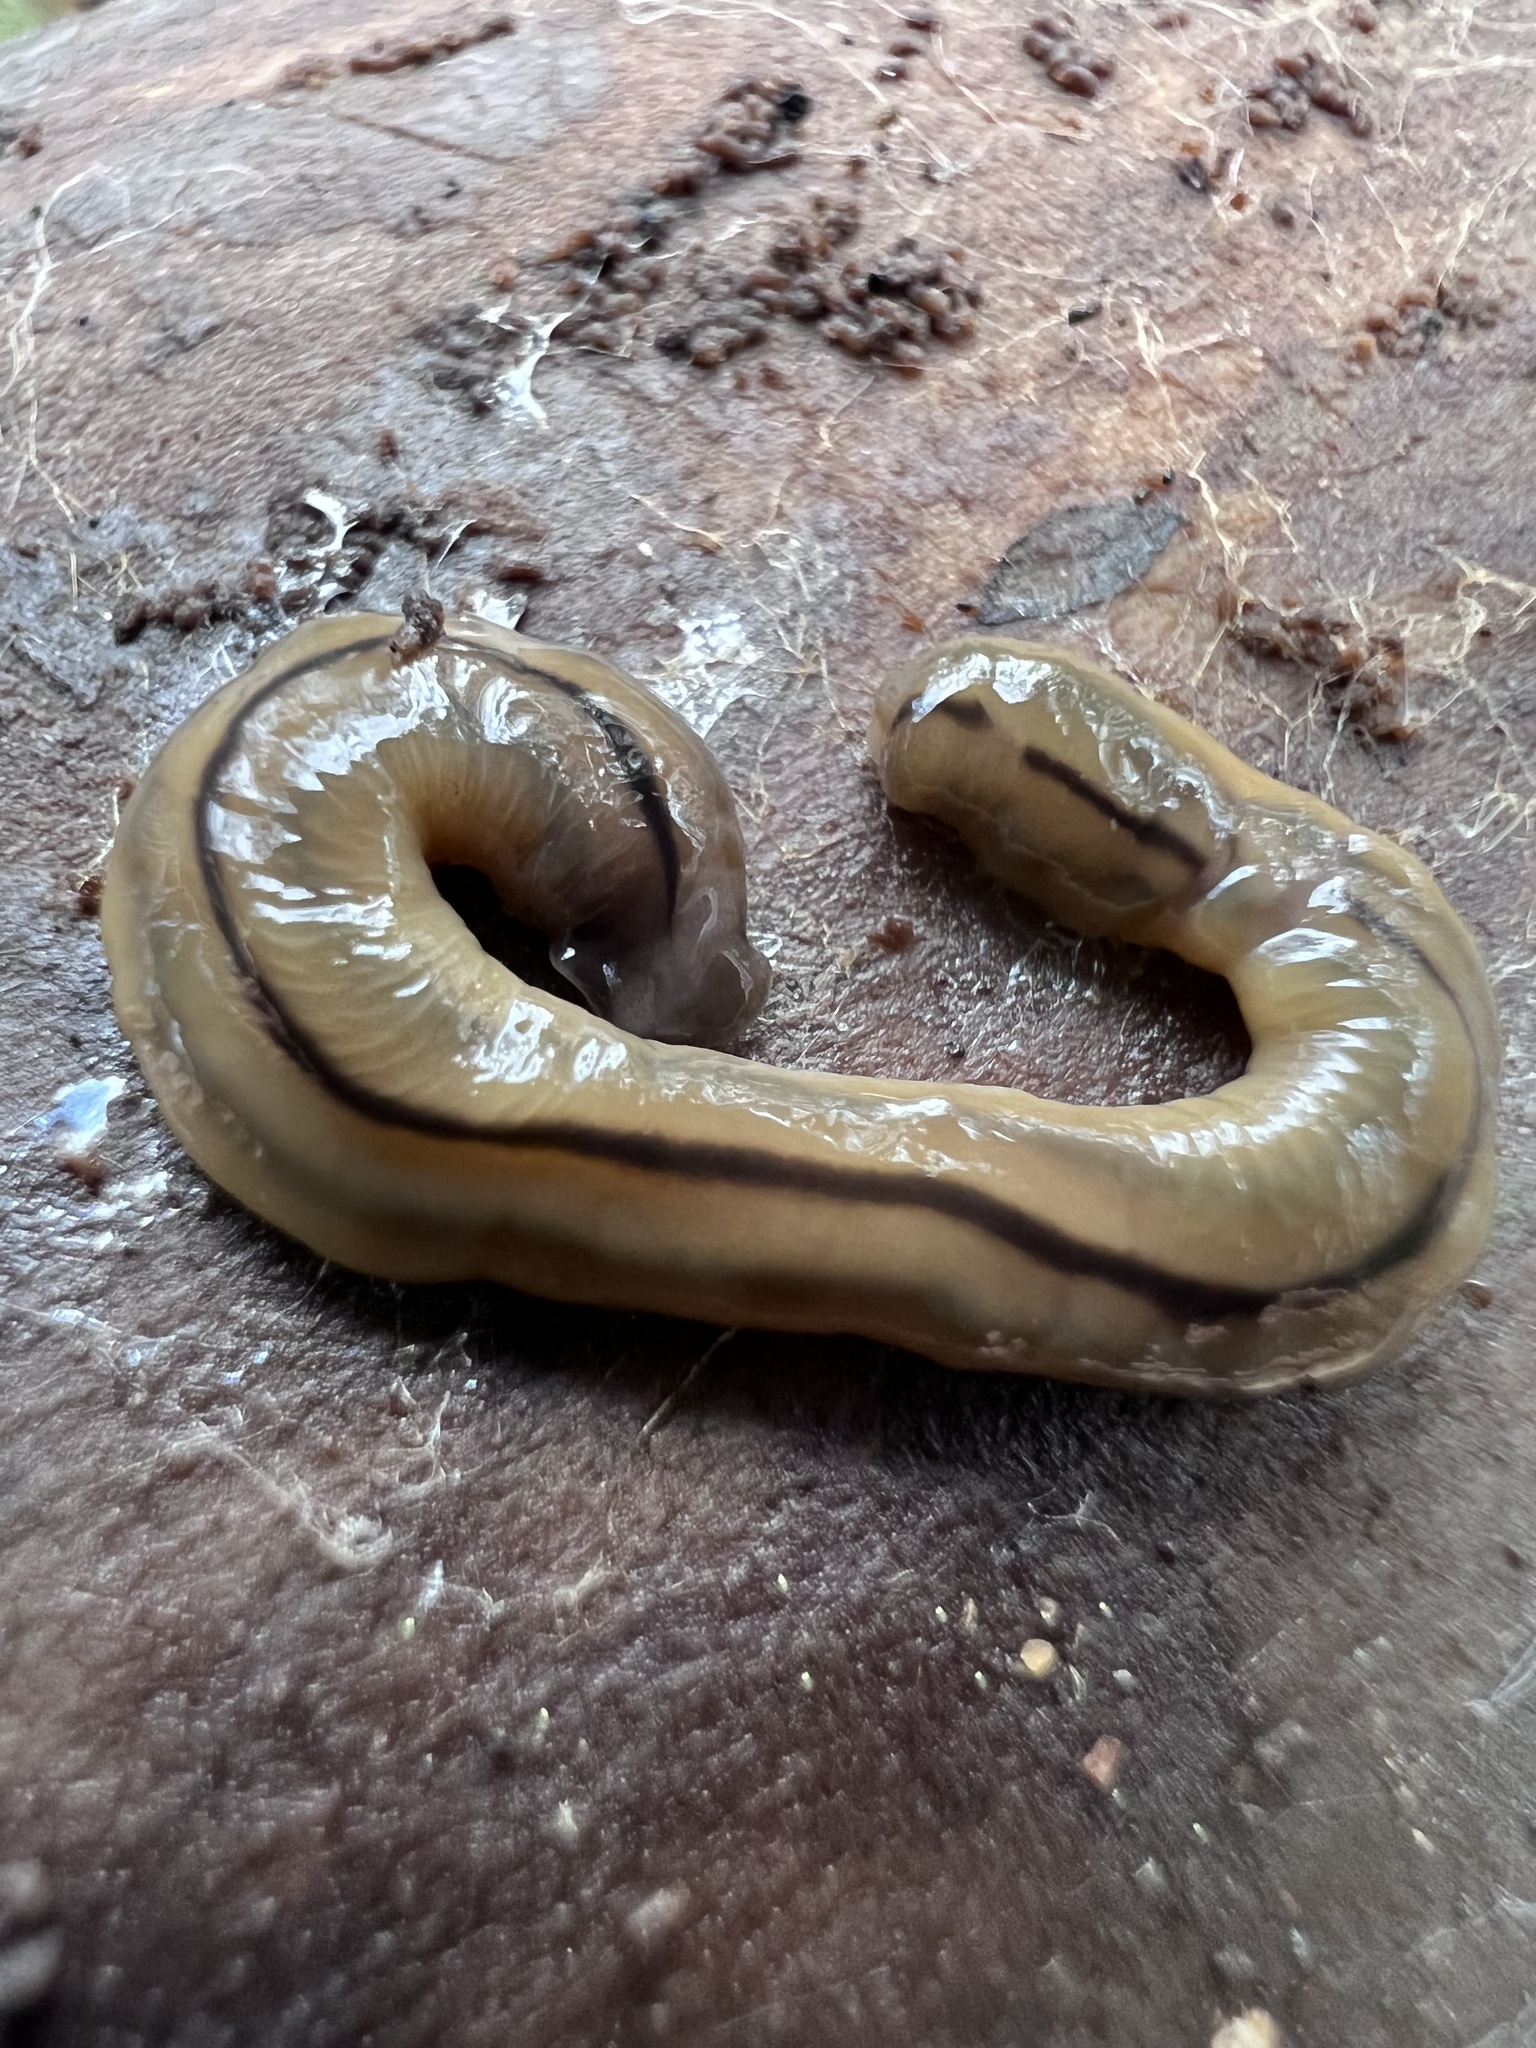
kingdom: Animalia
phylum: Platyhelminthes
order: Tricladida
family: Geoplanidae
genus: Bipalium
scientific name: Bipalium pennsylvanicum
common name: Three-lined land planarian
